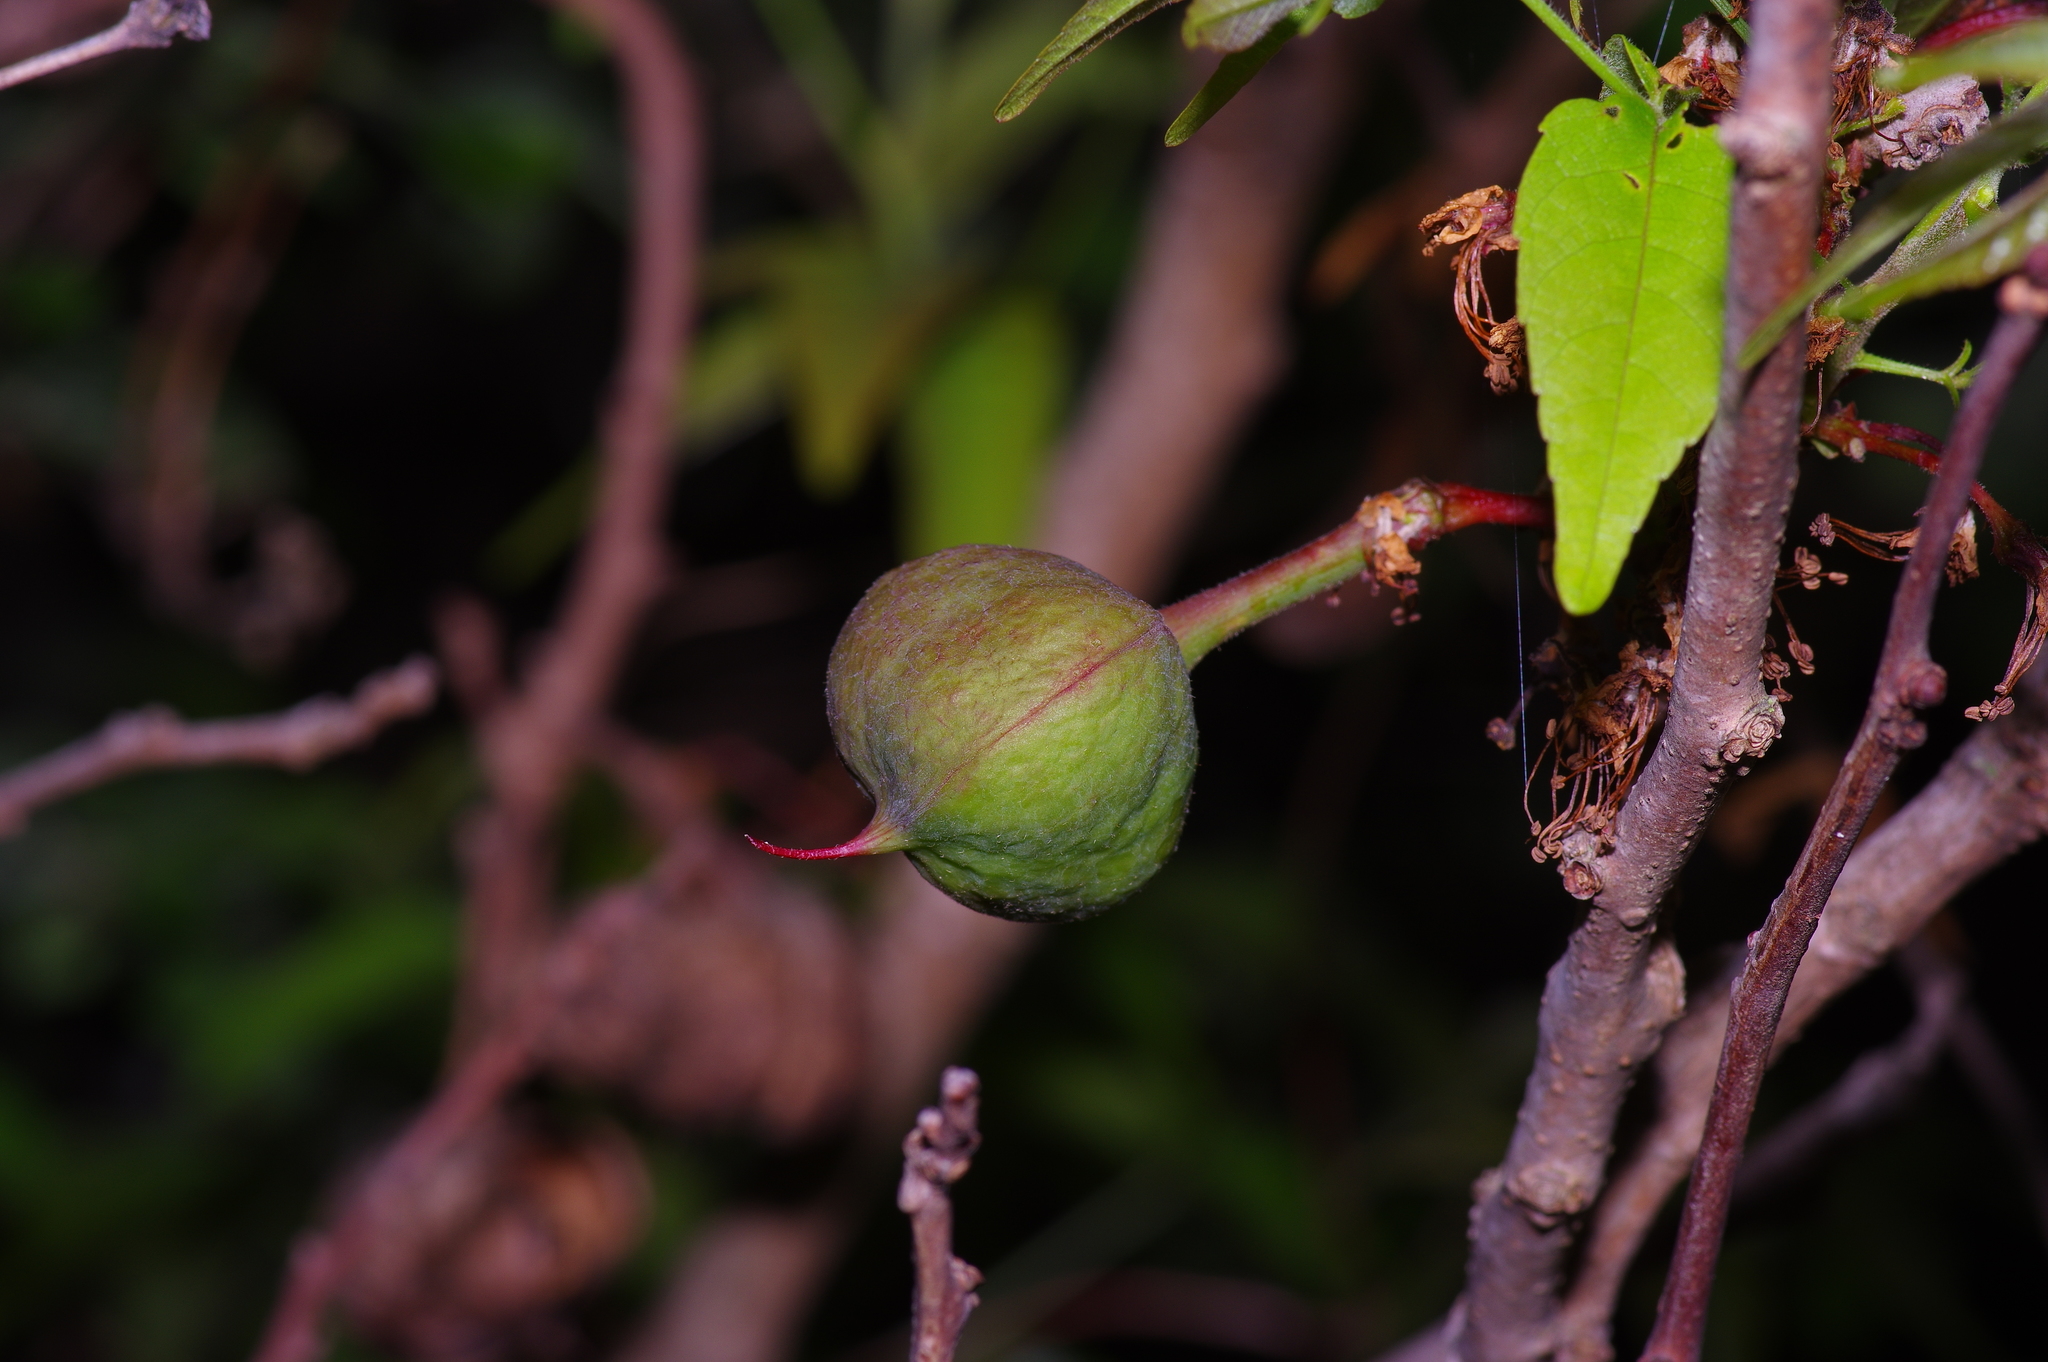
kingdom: Plantae
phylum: Tracheophyta
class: Magnoliopsida
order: Sapindales
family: Sapindaceae
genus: Ungnadia
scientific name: Ungnadia speciosa
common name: Texas-buckeye
